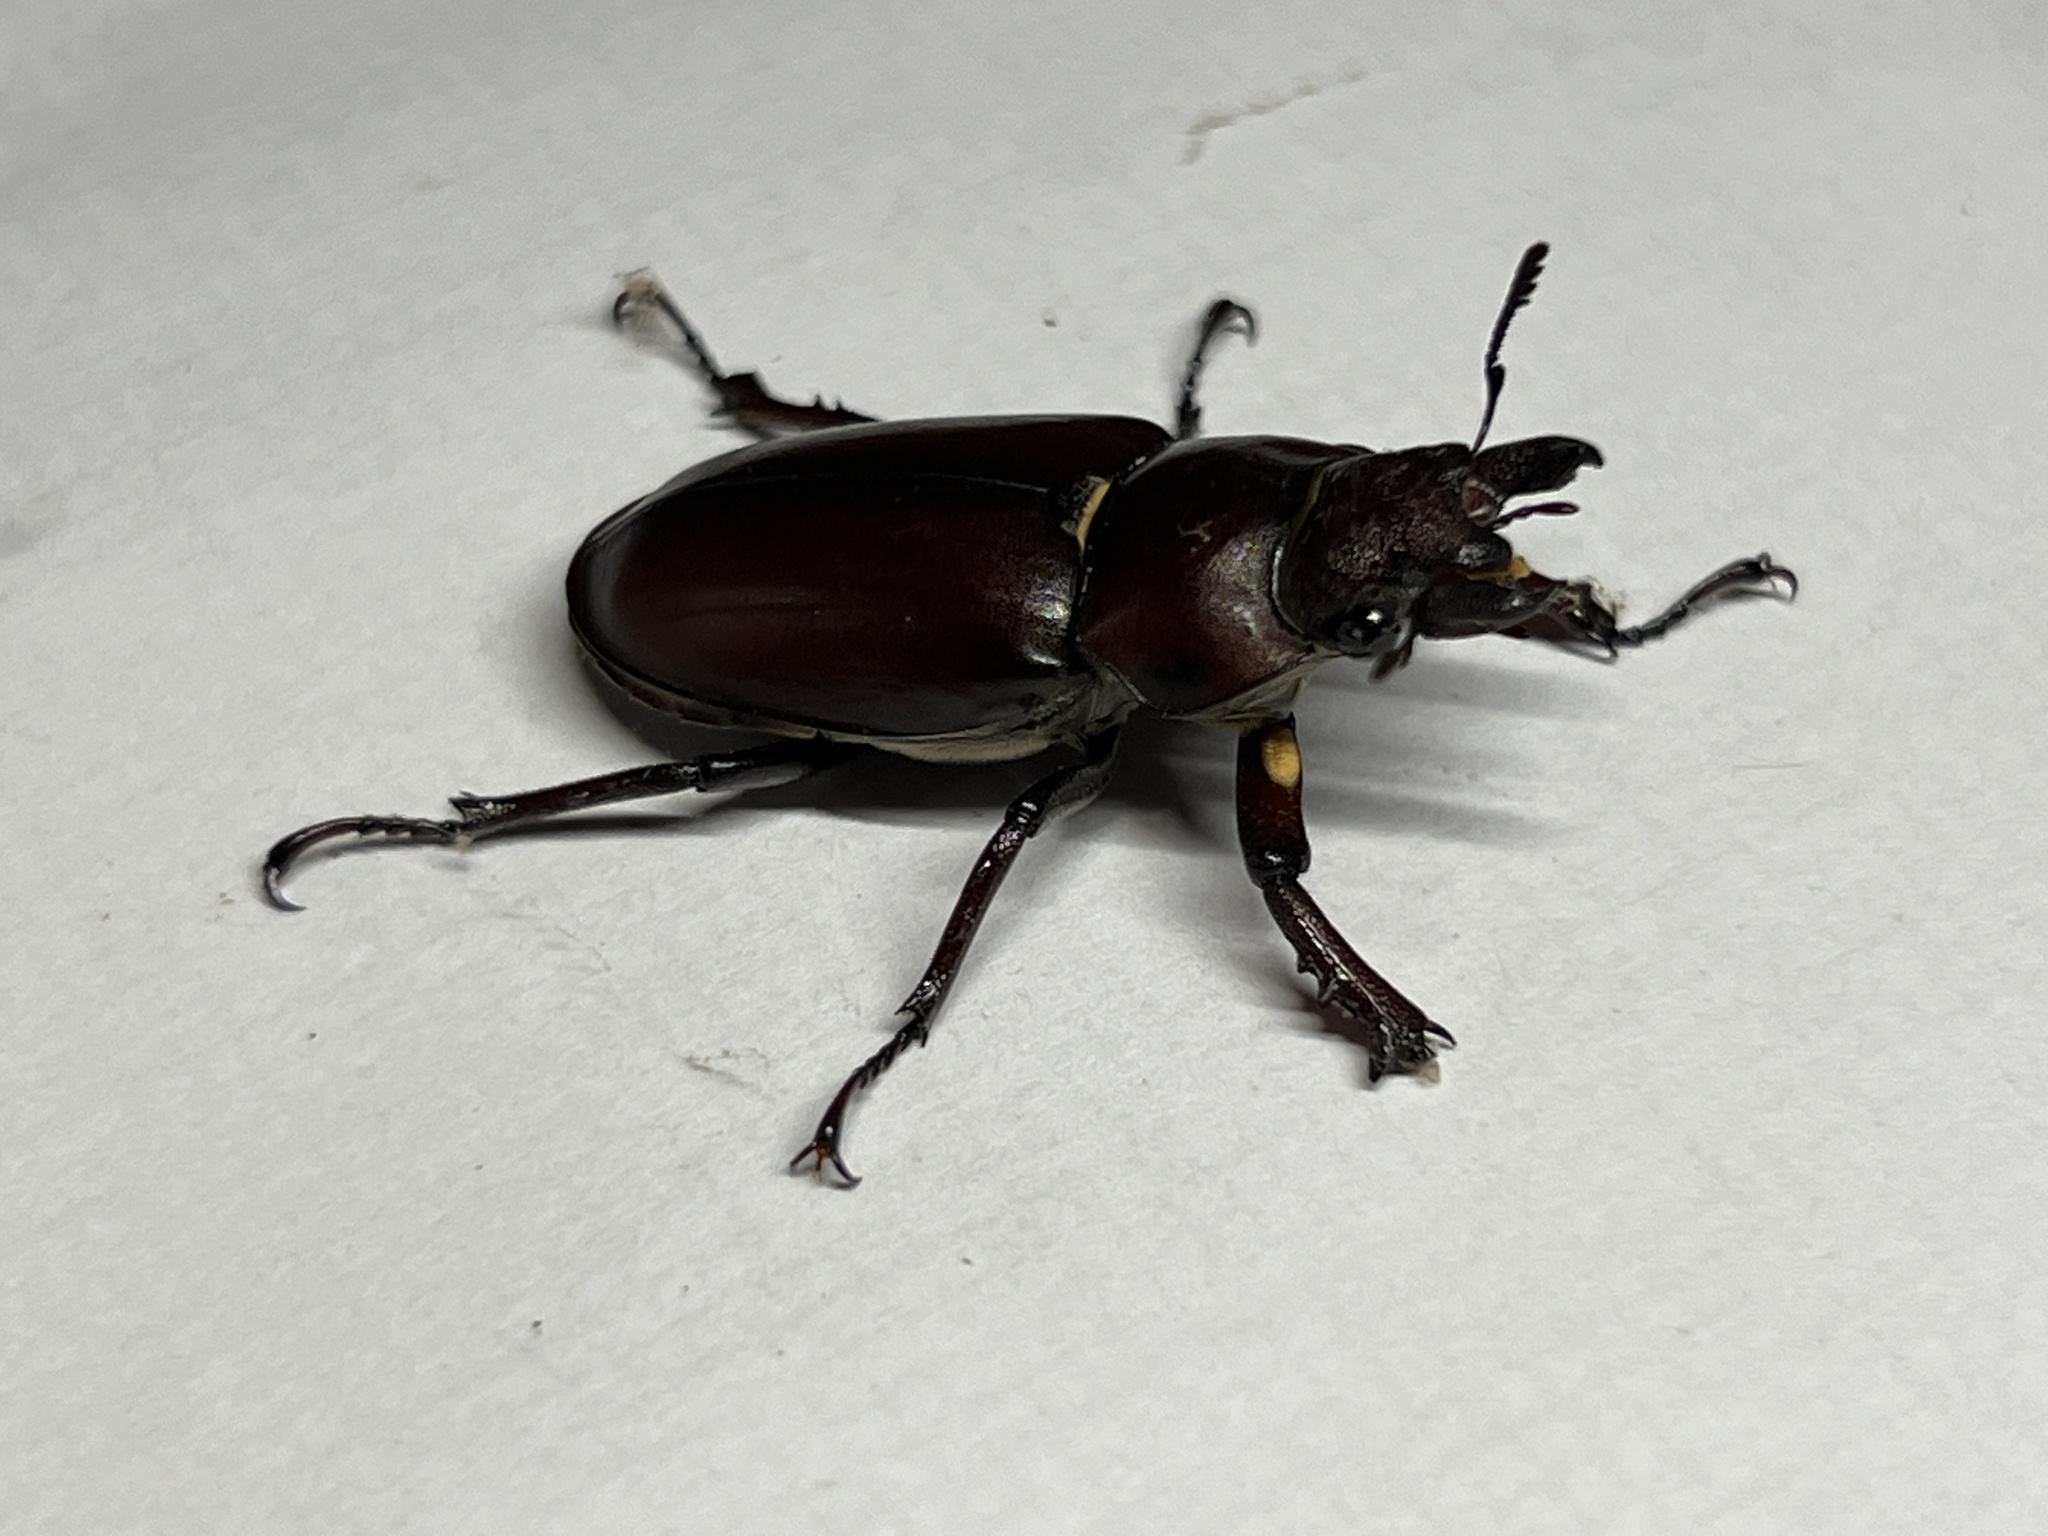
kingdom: Animalia
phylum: Arthropoda
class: Insecta
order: Coleoptera
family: Lucanidae
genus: Lucanus
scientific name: Lucanus elaphus
